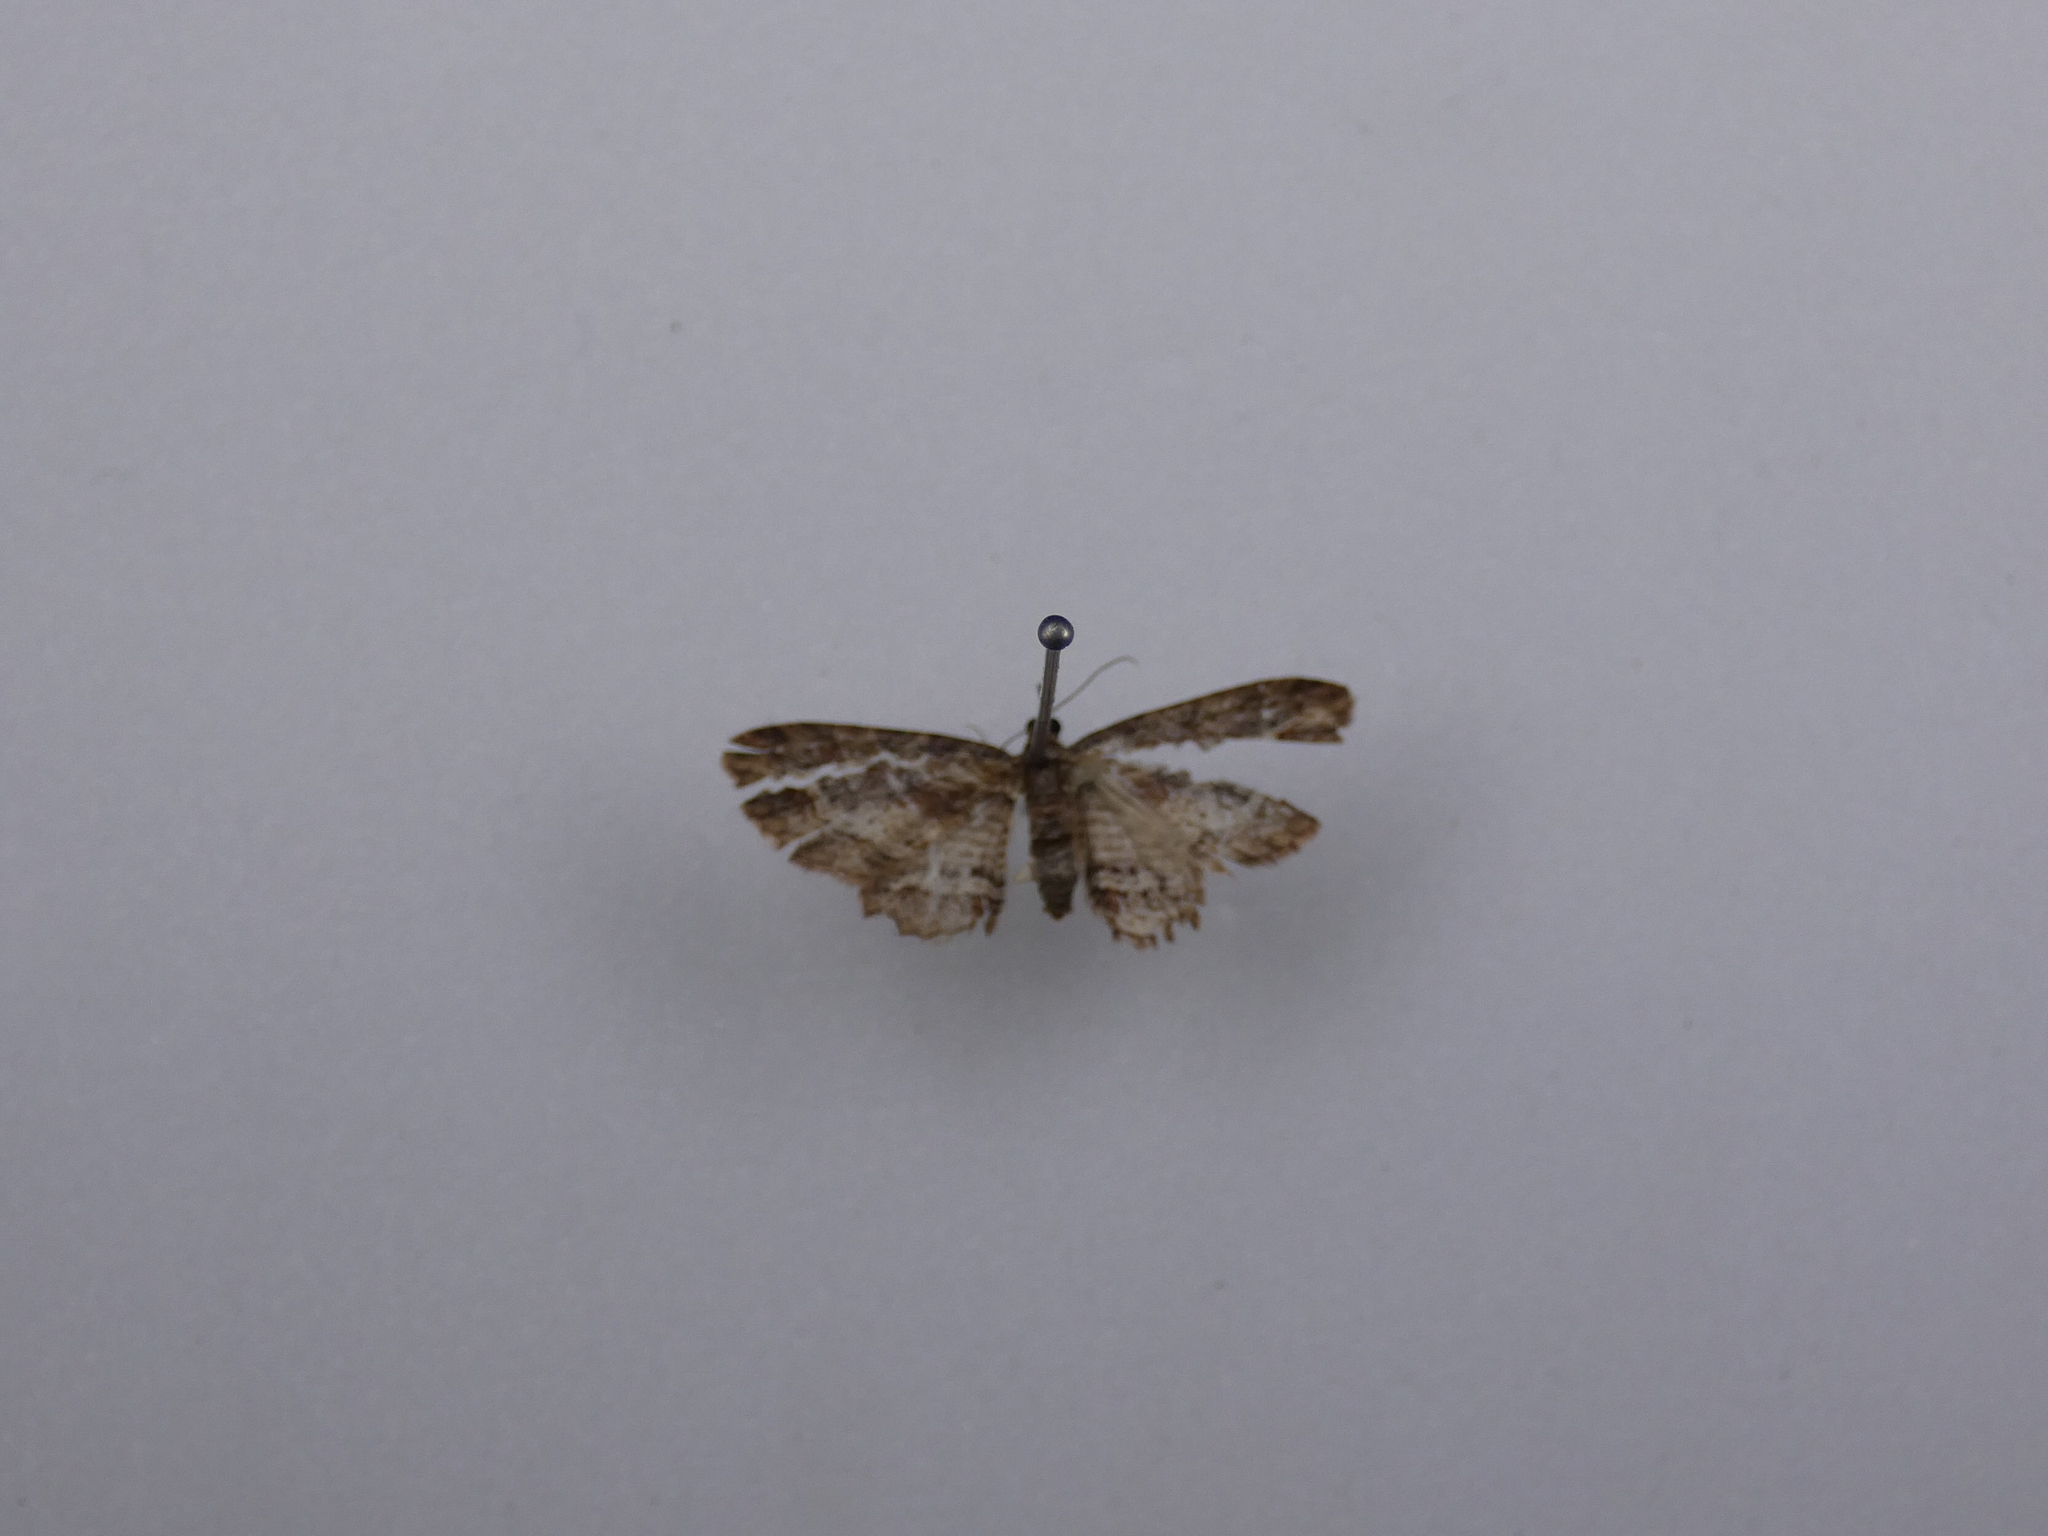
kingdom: Animalia
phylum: Arthropoda
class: Insecta
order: Lepidoptera
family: Geometridae
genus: Chloroclystis
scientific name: Chloroclystis filata
